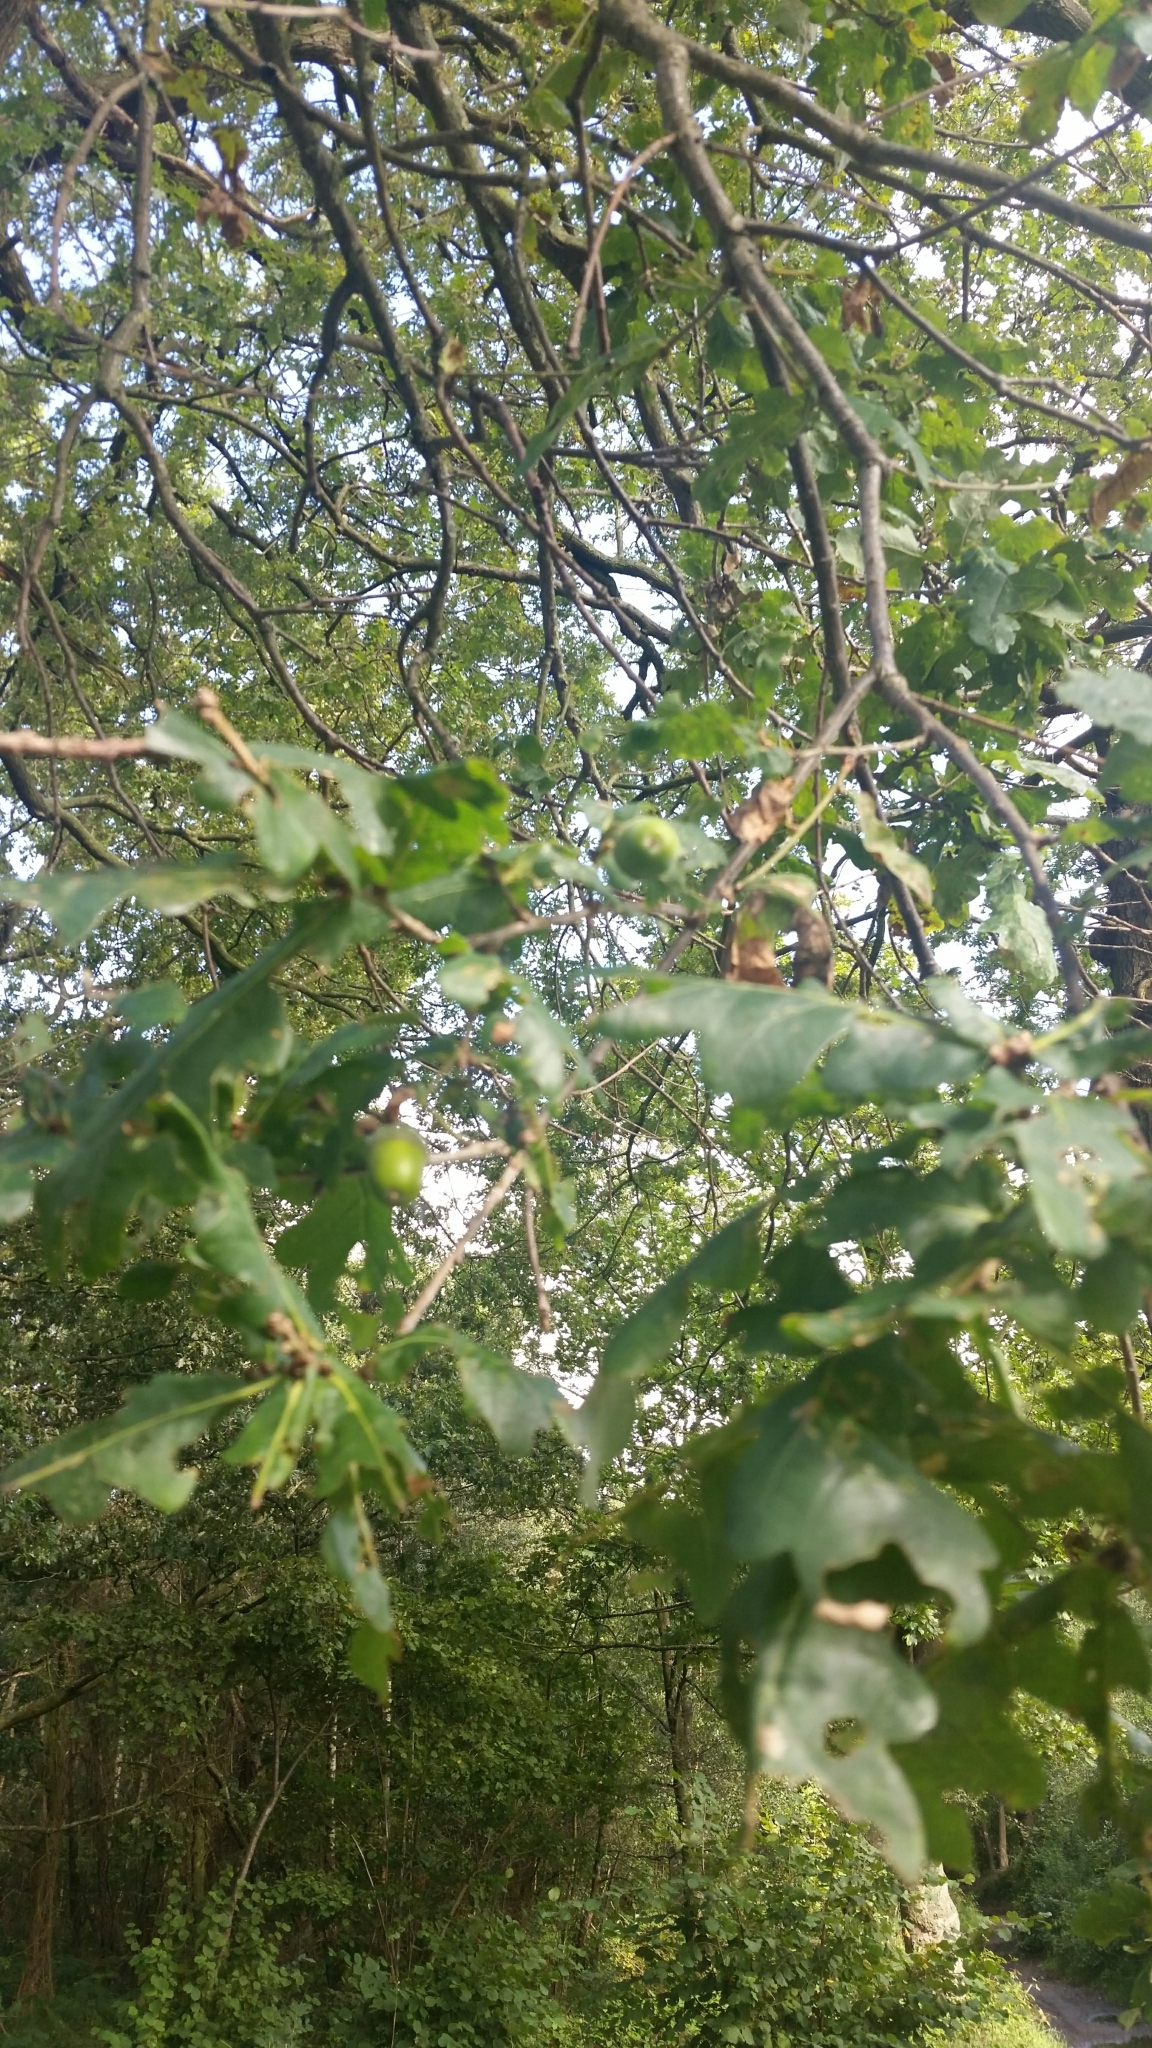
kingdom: Plantae
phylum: Tracheophyta
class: Magnoliopsida
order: Fagales
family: Fagaceae
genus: Quercus
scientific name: Quercus robur
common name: Pedunculate oak
